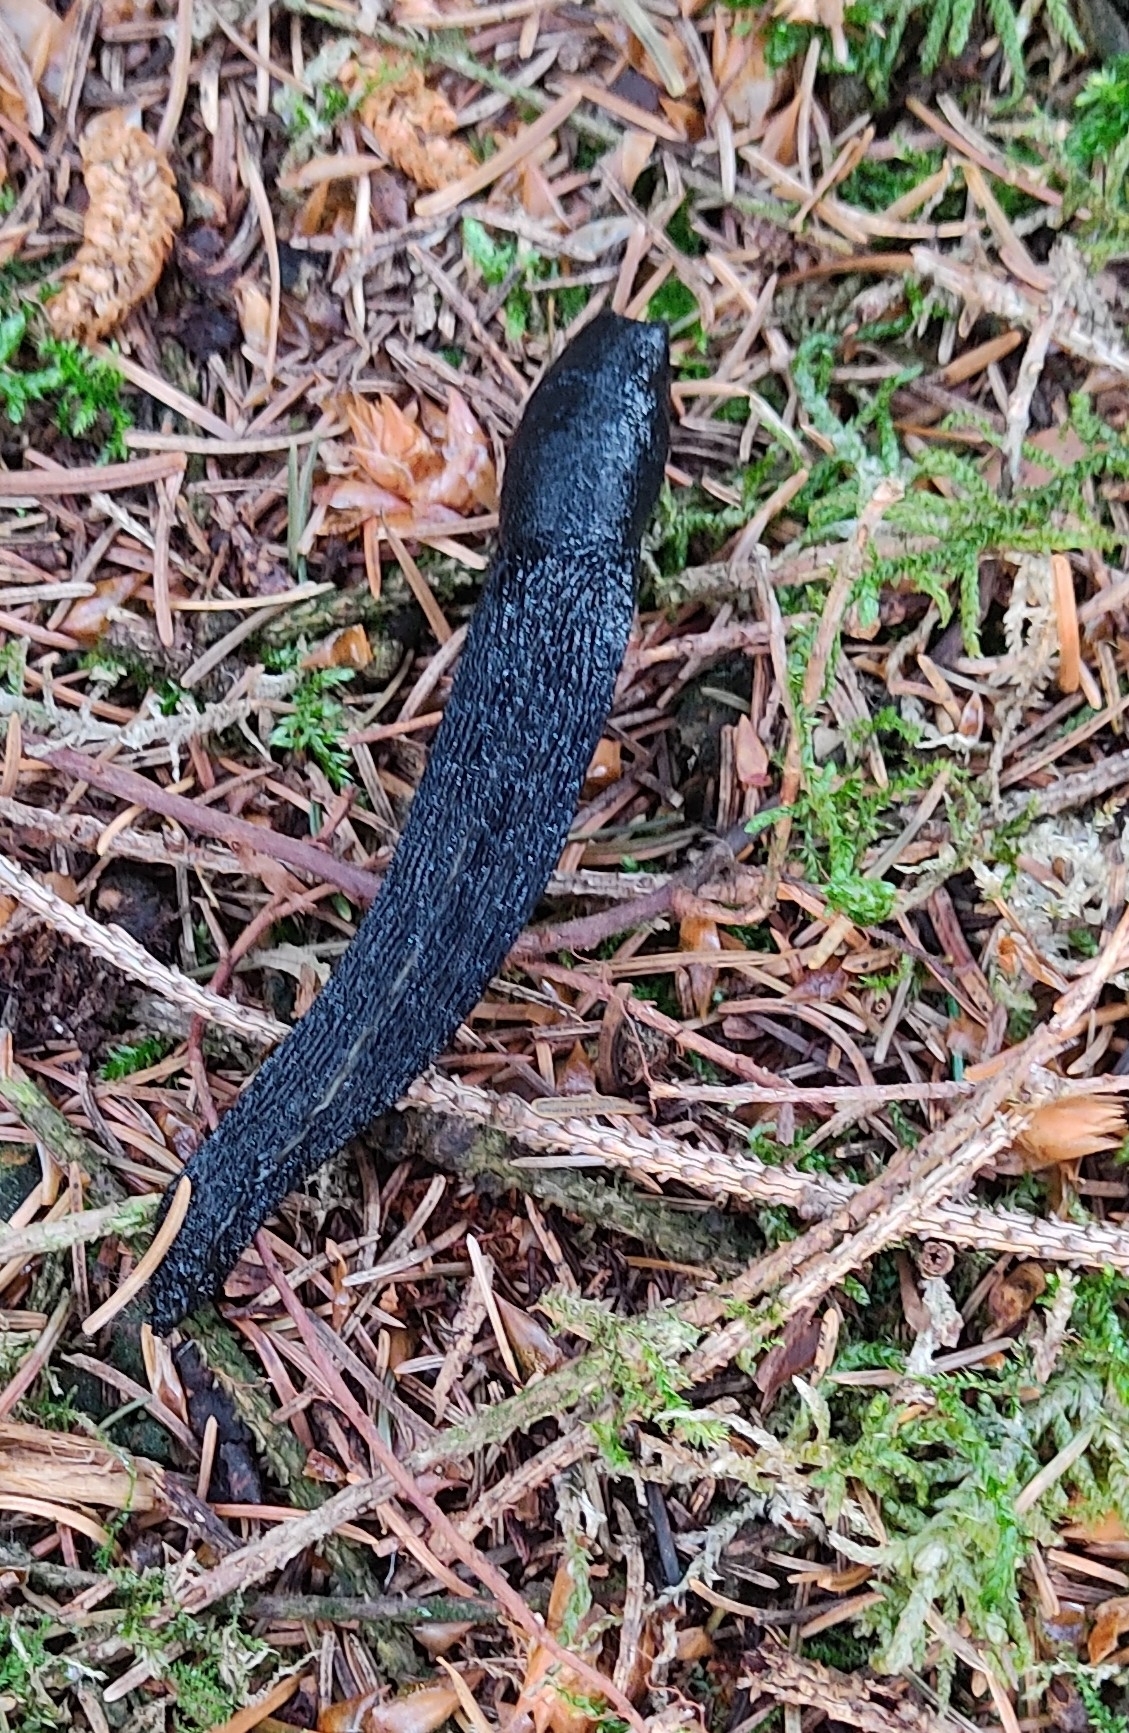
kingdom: Animalia
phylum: Mollusca
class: Gastropoda
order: Stylommatophora
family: Limacidae
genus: Limax
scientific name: Limax cinereoniger
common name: Ash-black slug
